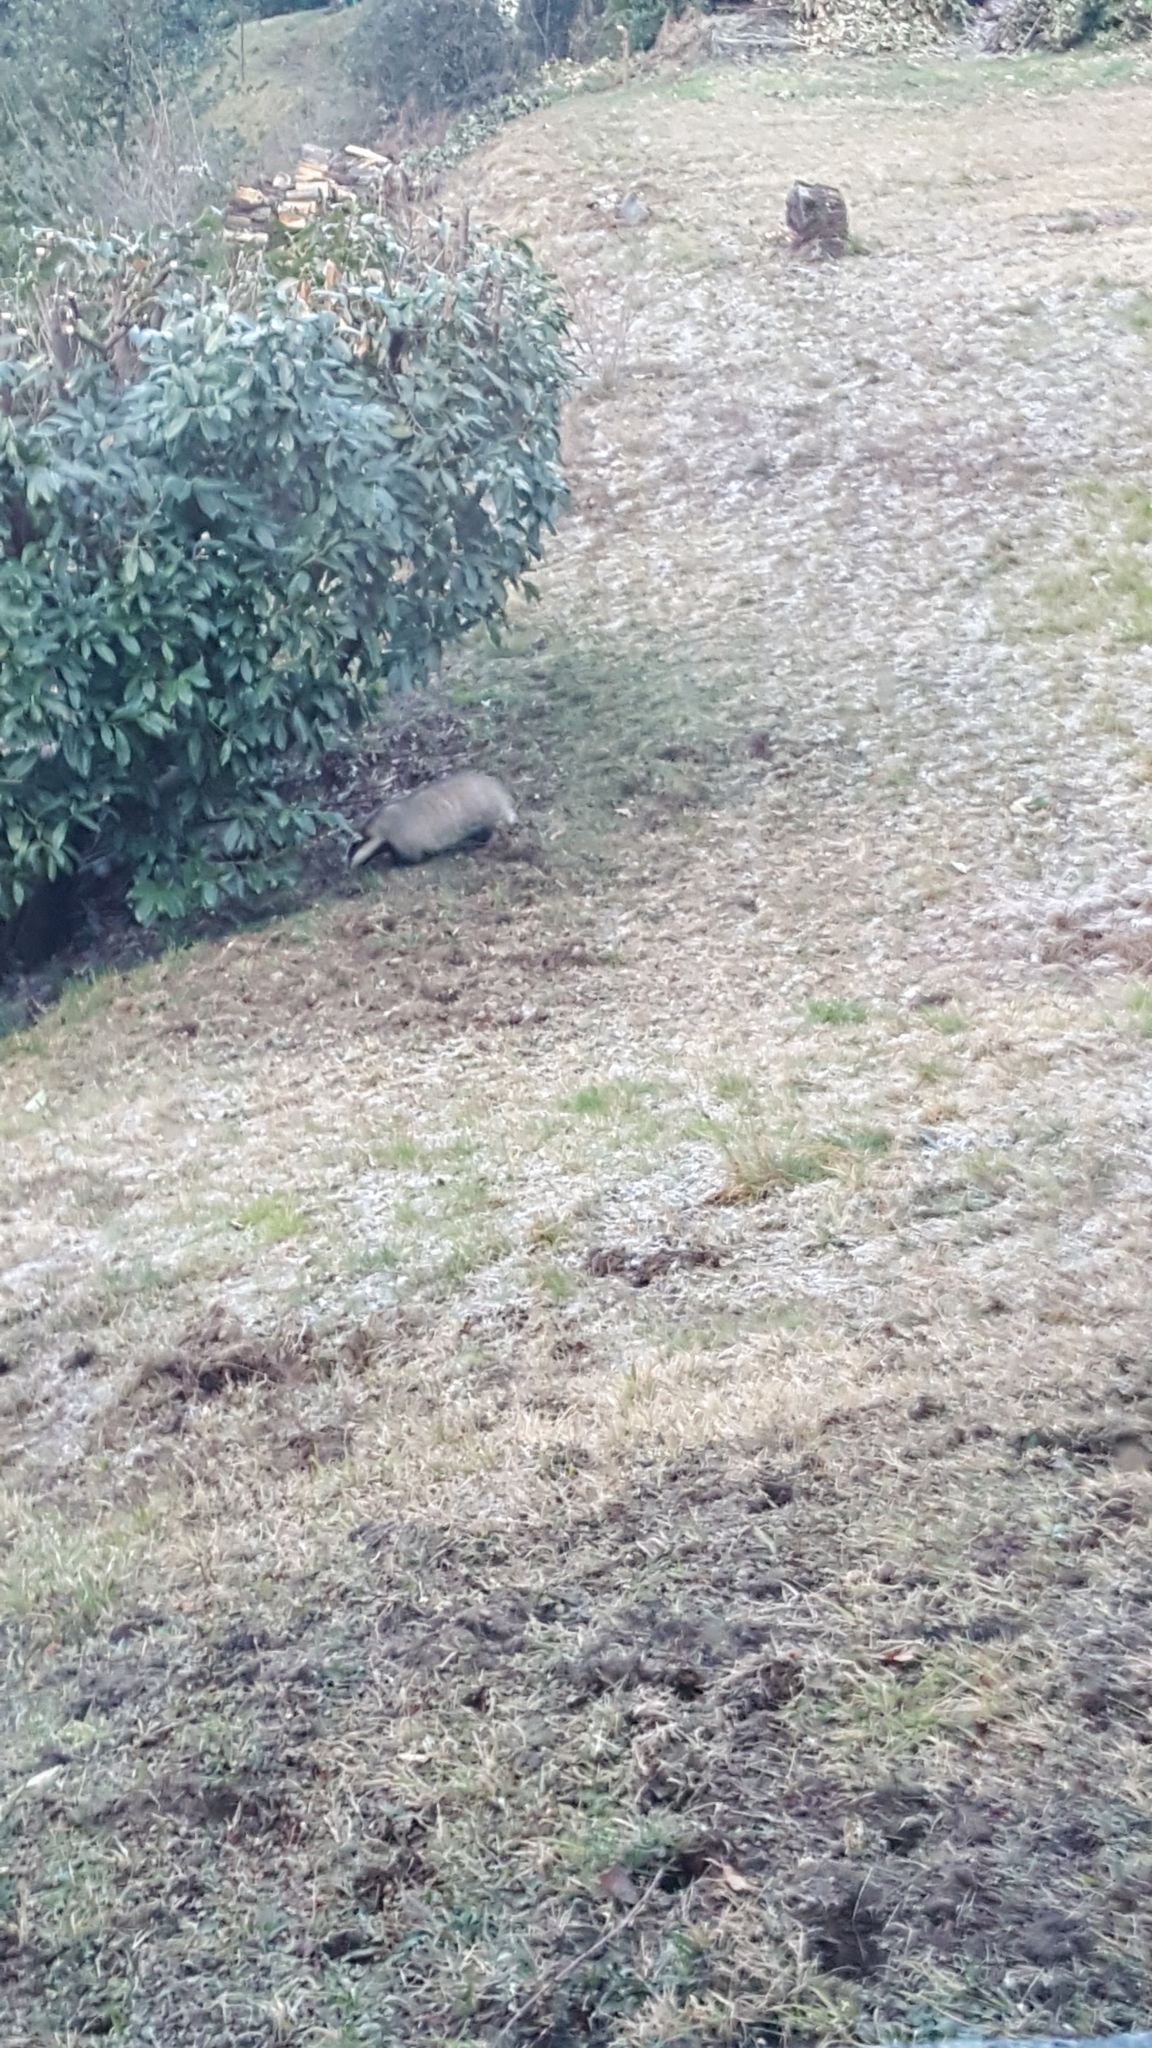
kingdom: Animalia
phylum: Chordata
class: Mammalia
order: Carnivora
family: Mustelidae
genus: Meles
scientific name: Meles meles
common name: Eurasian badger
